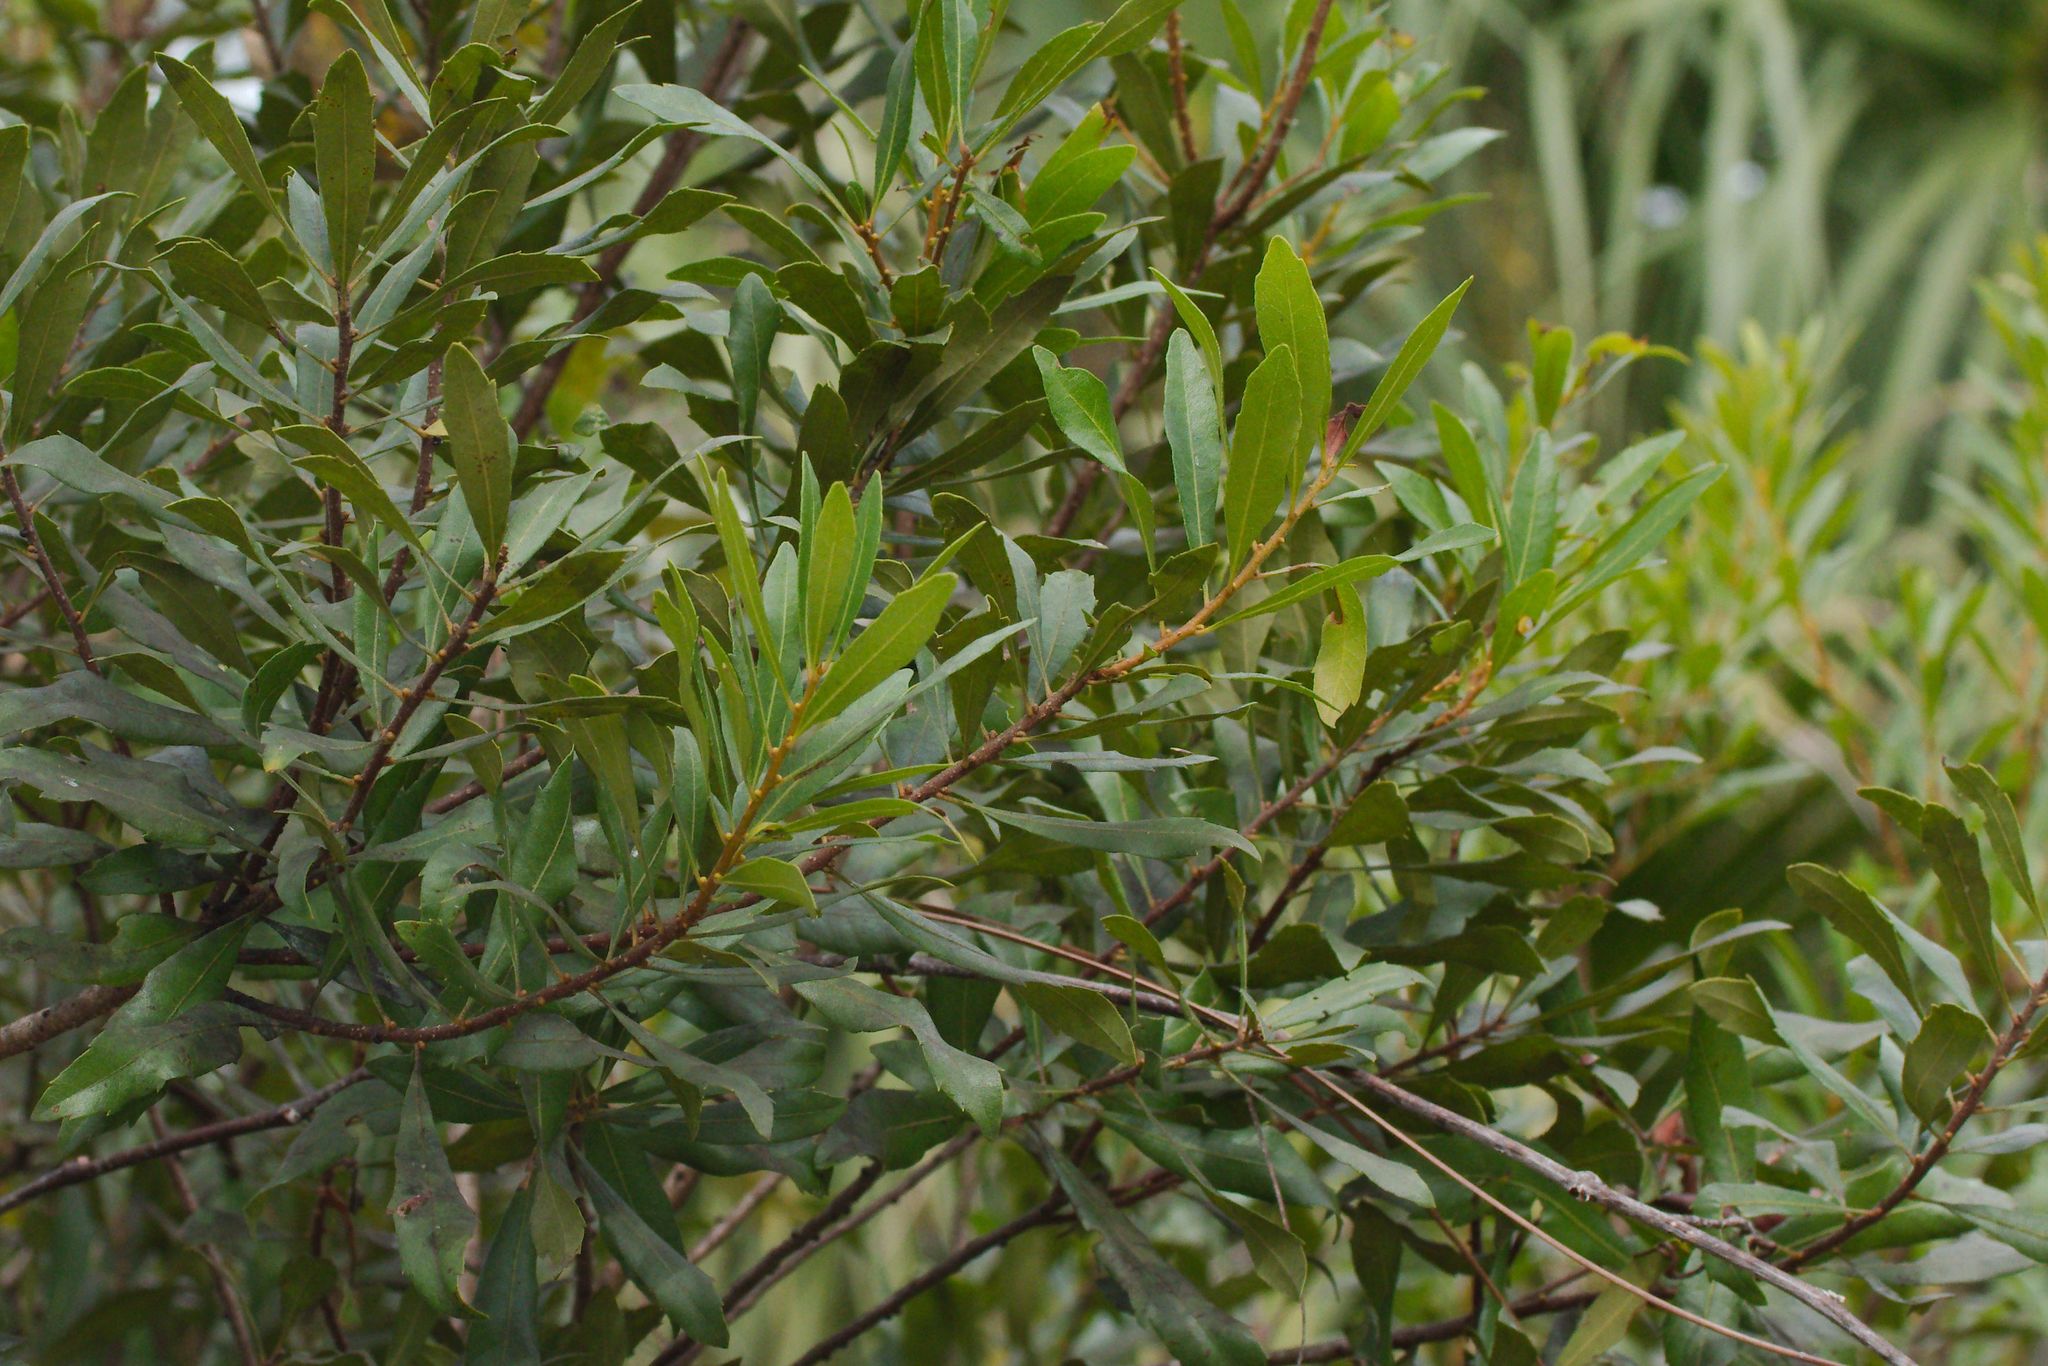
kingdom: Plantae
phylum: Tracheophyta
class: Magnoliopsida
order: Fagales
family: Myricaceae
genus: Morella
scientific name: Morella cerifera
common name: Wax myrtle
